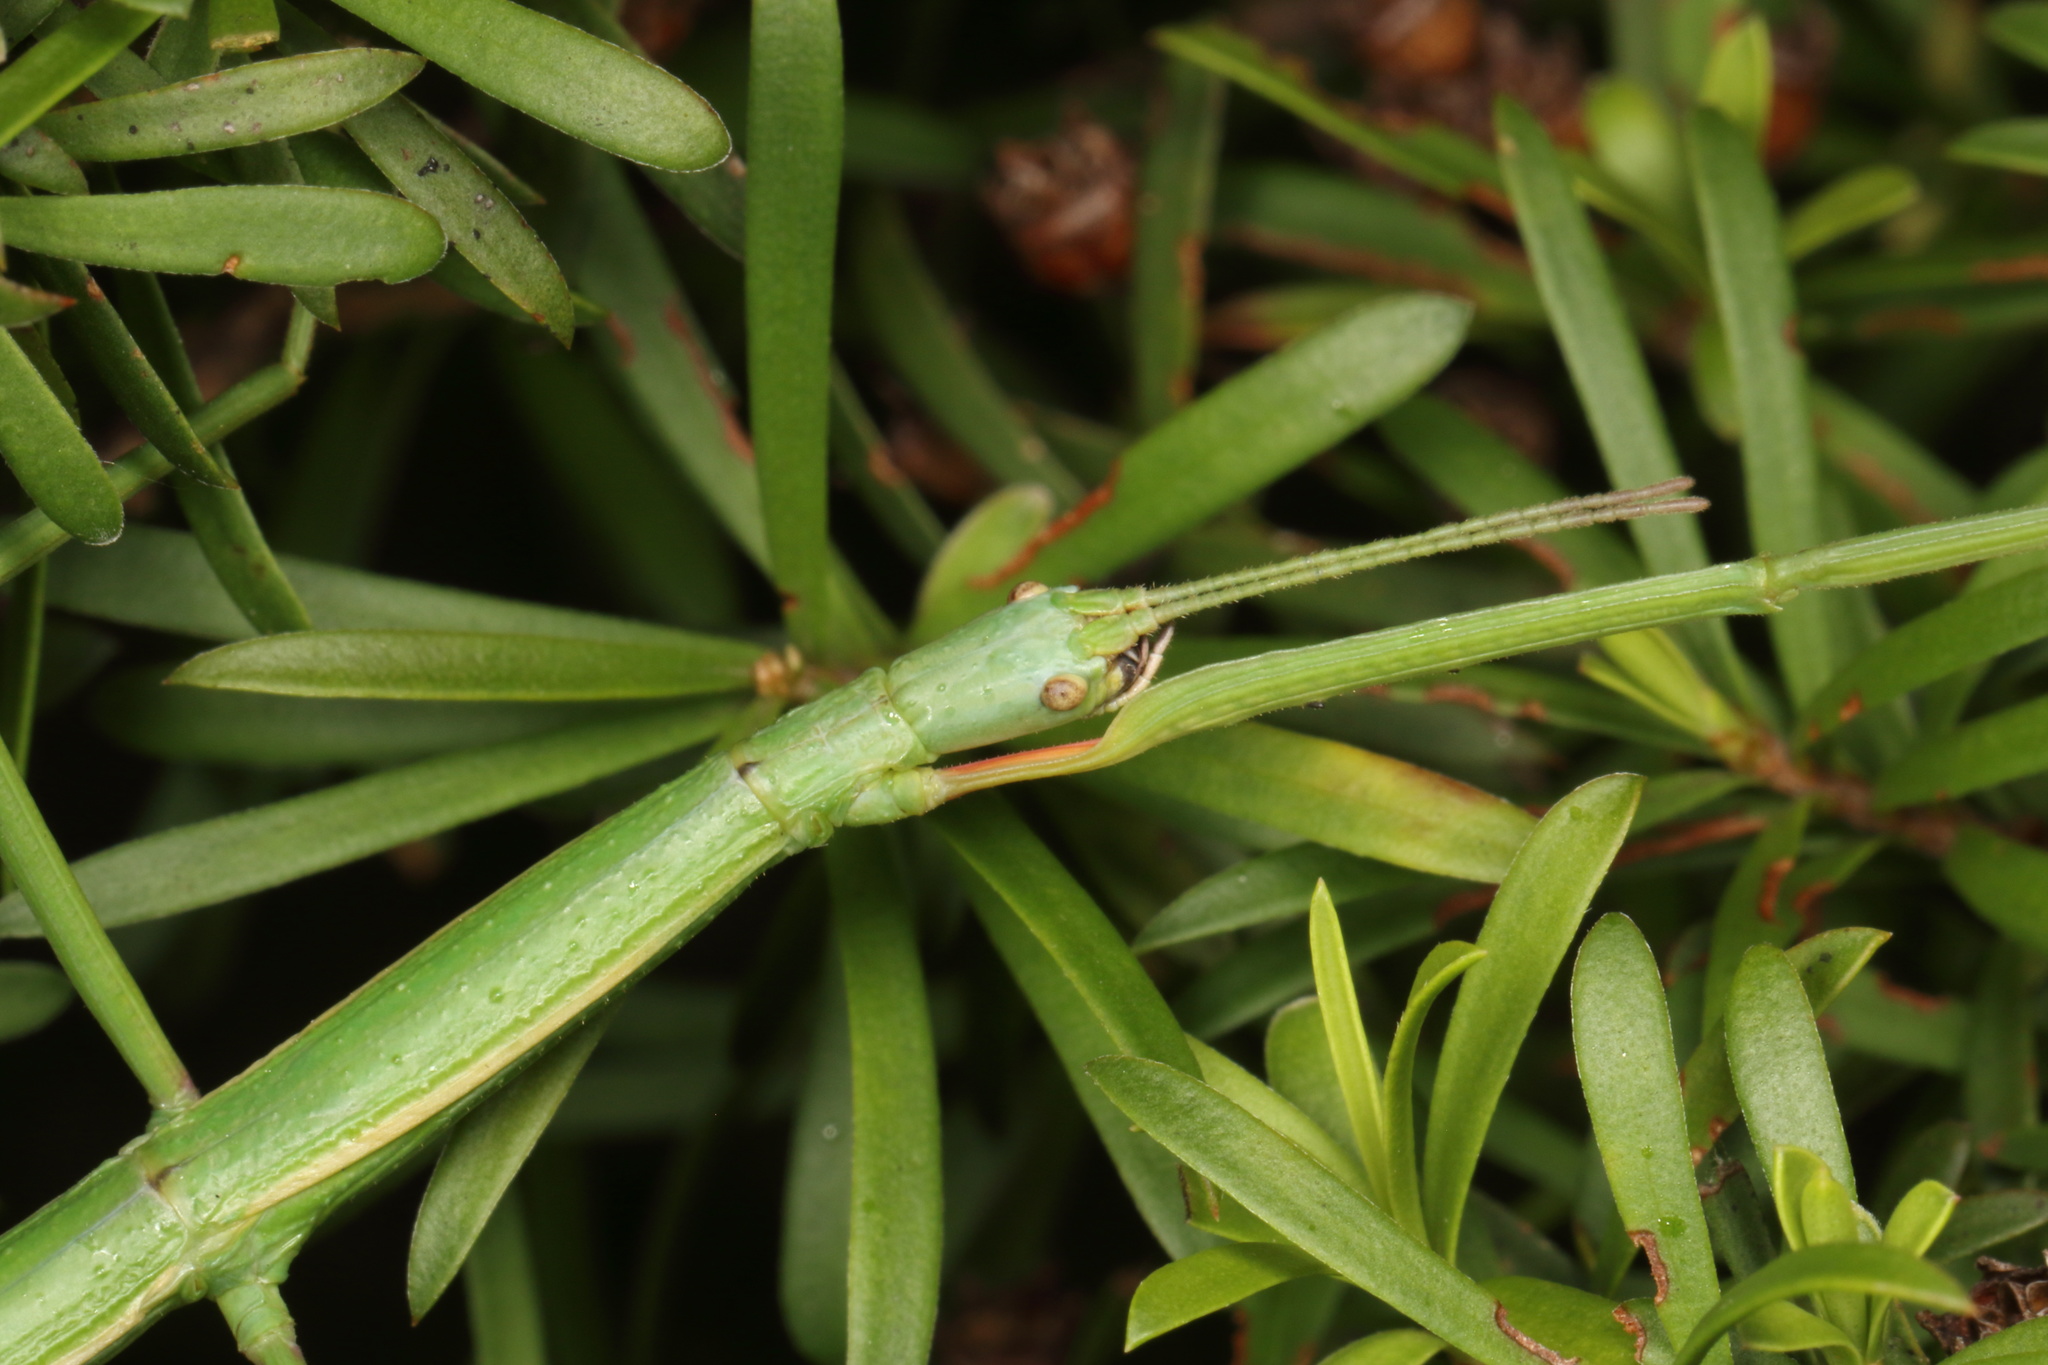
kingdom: Animalia
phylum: Arthropoda
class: Insecta
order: Phasmida
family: Phasmatidae
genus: Clitarchus
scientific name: Clitarchus hookeri
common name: Smooth stick insect
